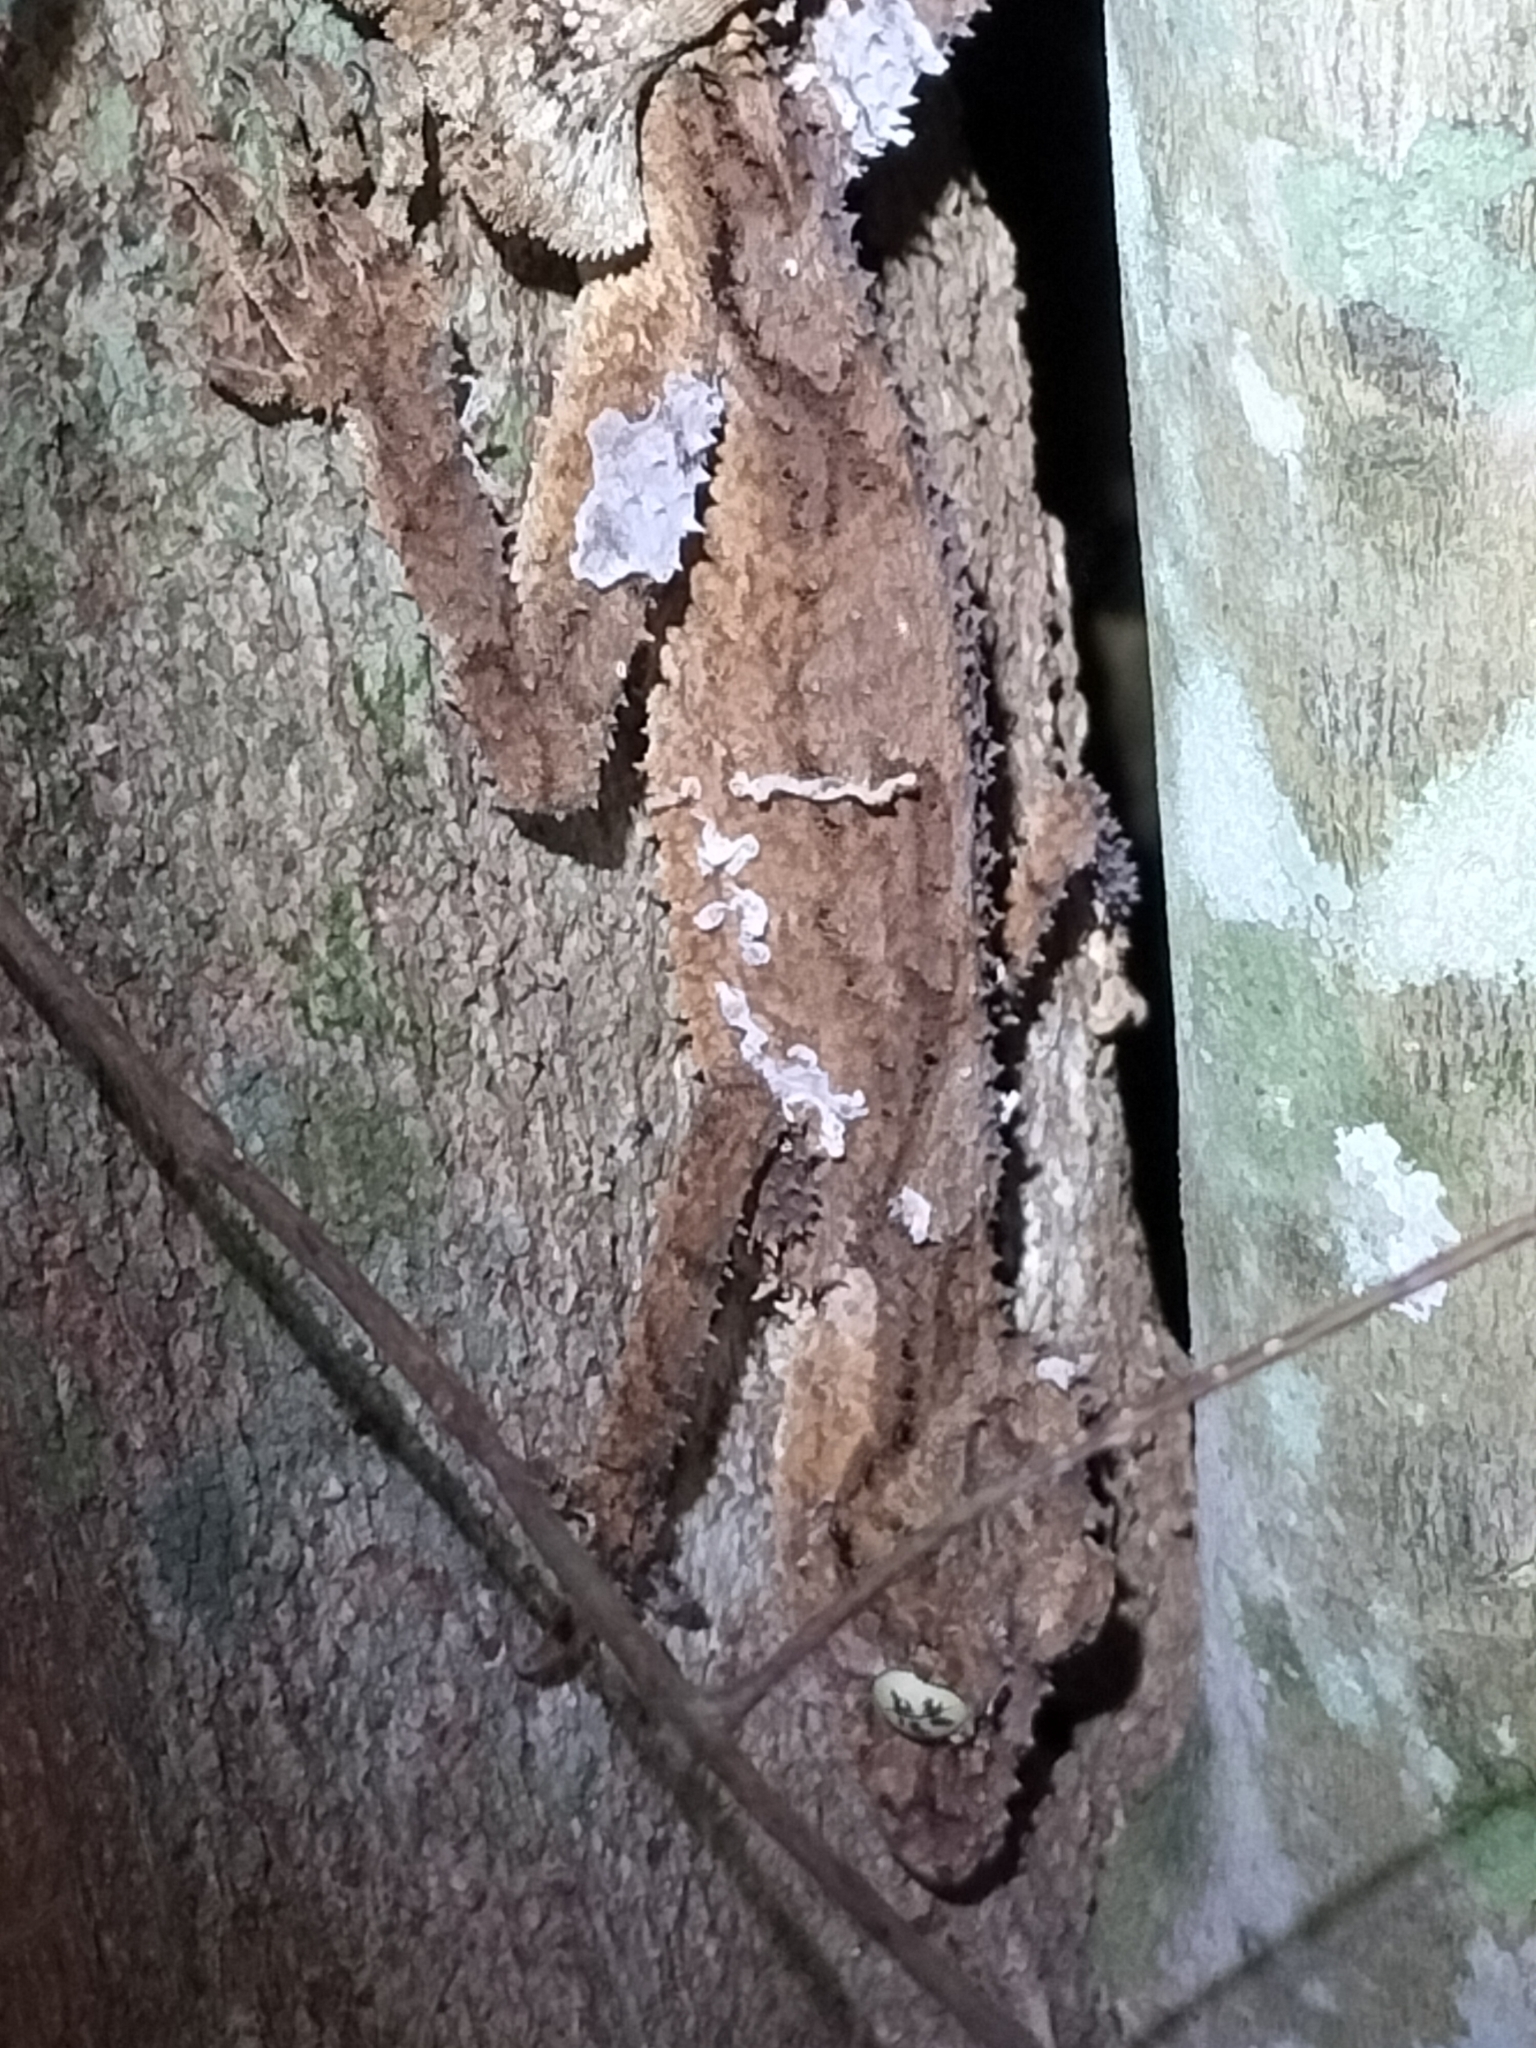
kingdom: Animalia
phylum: Chordata
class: Squamata
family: Carphodactylidae
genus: Saltuarius
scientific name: Saltuarius cornutus
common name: Leaf-tailed gecko
